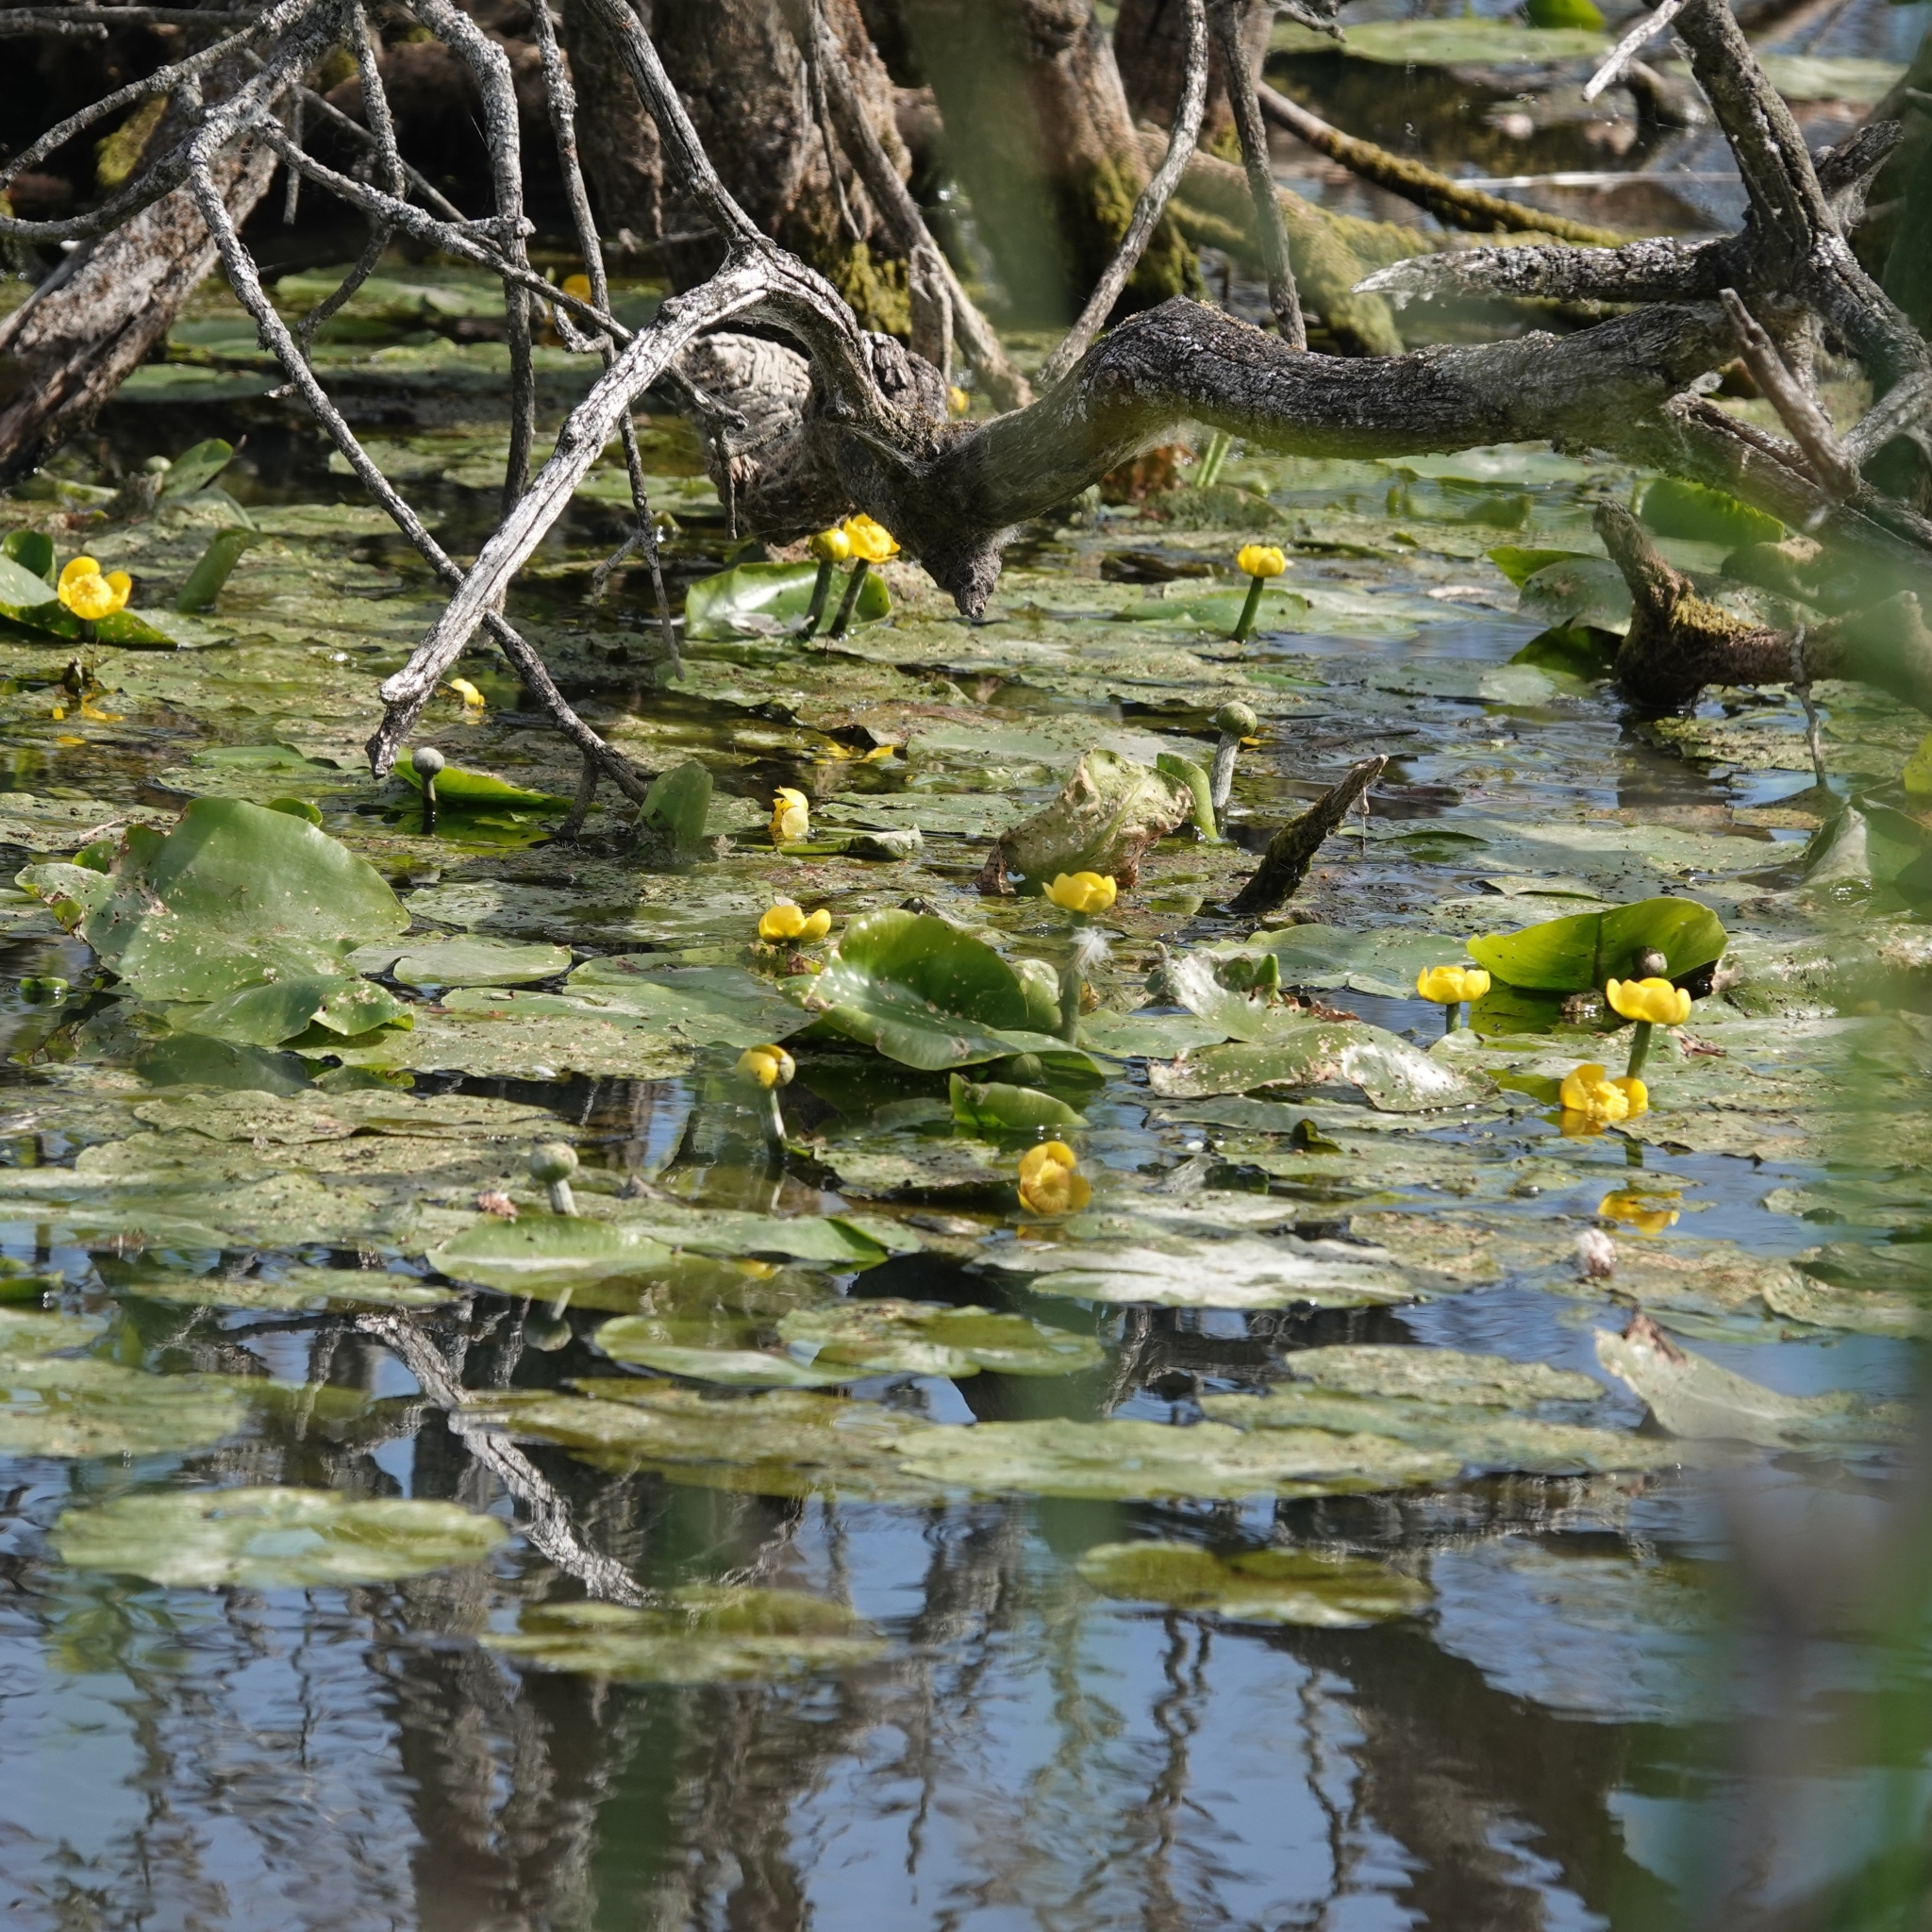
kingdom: Plantae
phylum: Tracheophyta
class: Magnoliopsida
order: Nymphaeales
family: Nymphaeaceae
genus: Nuphar
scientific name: Nuphar lutea
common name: Yellow water-lily
